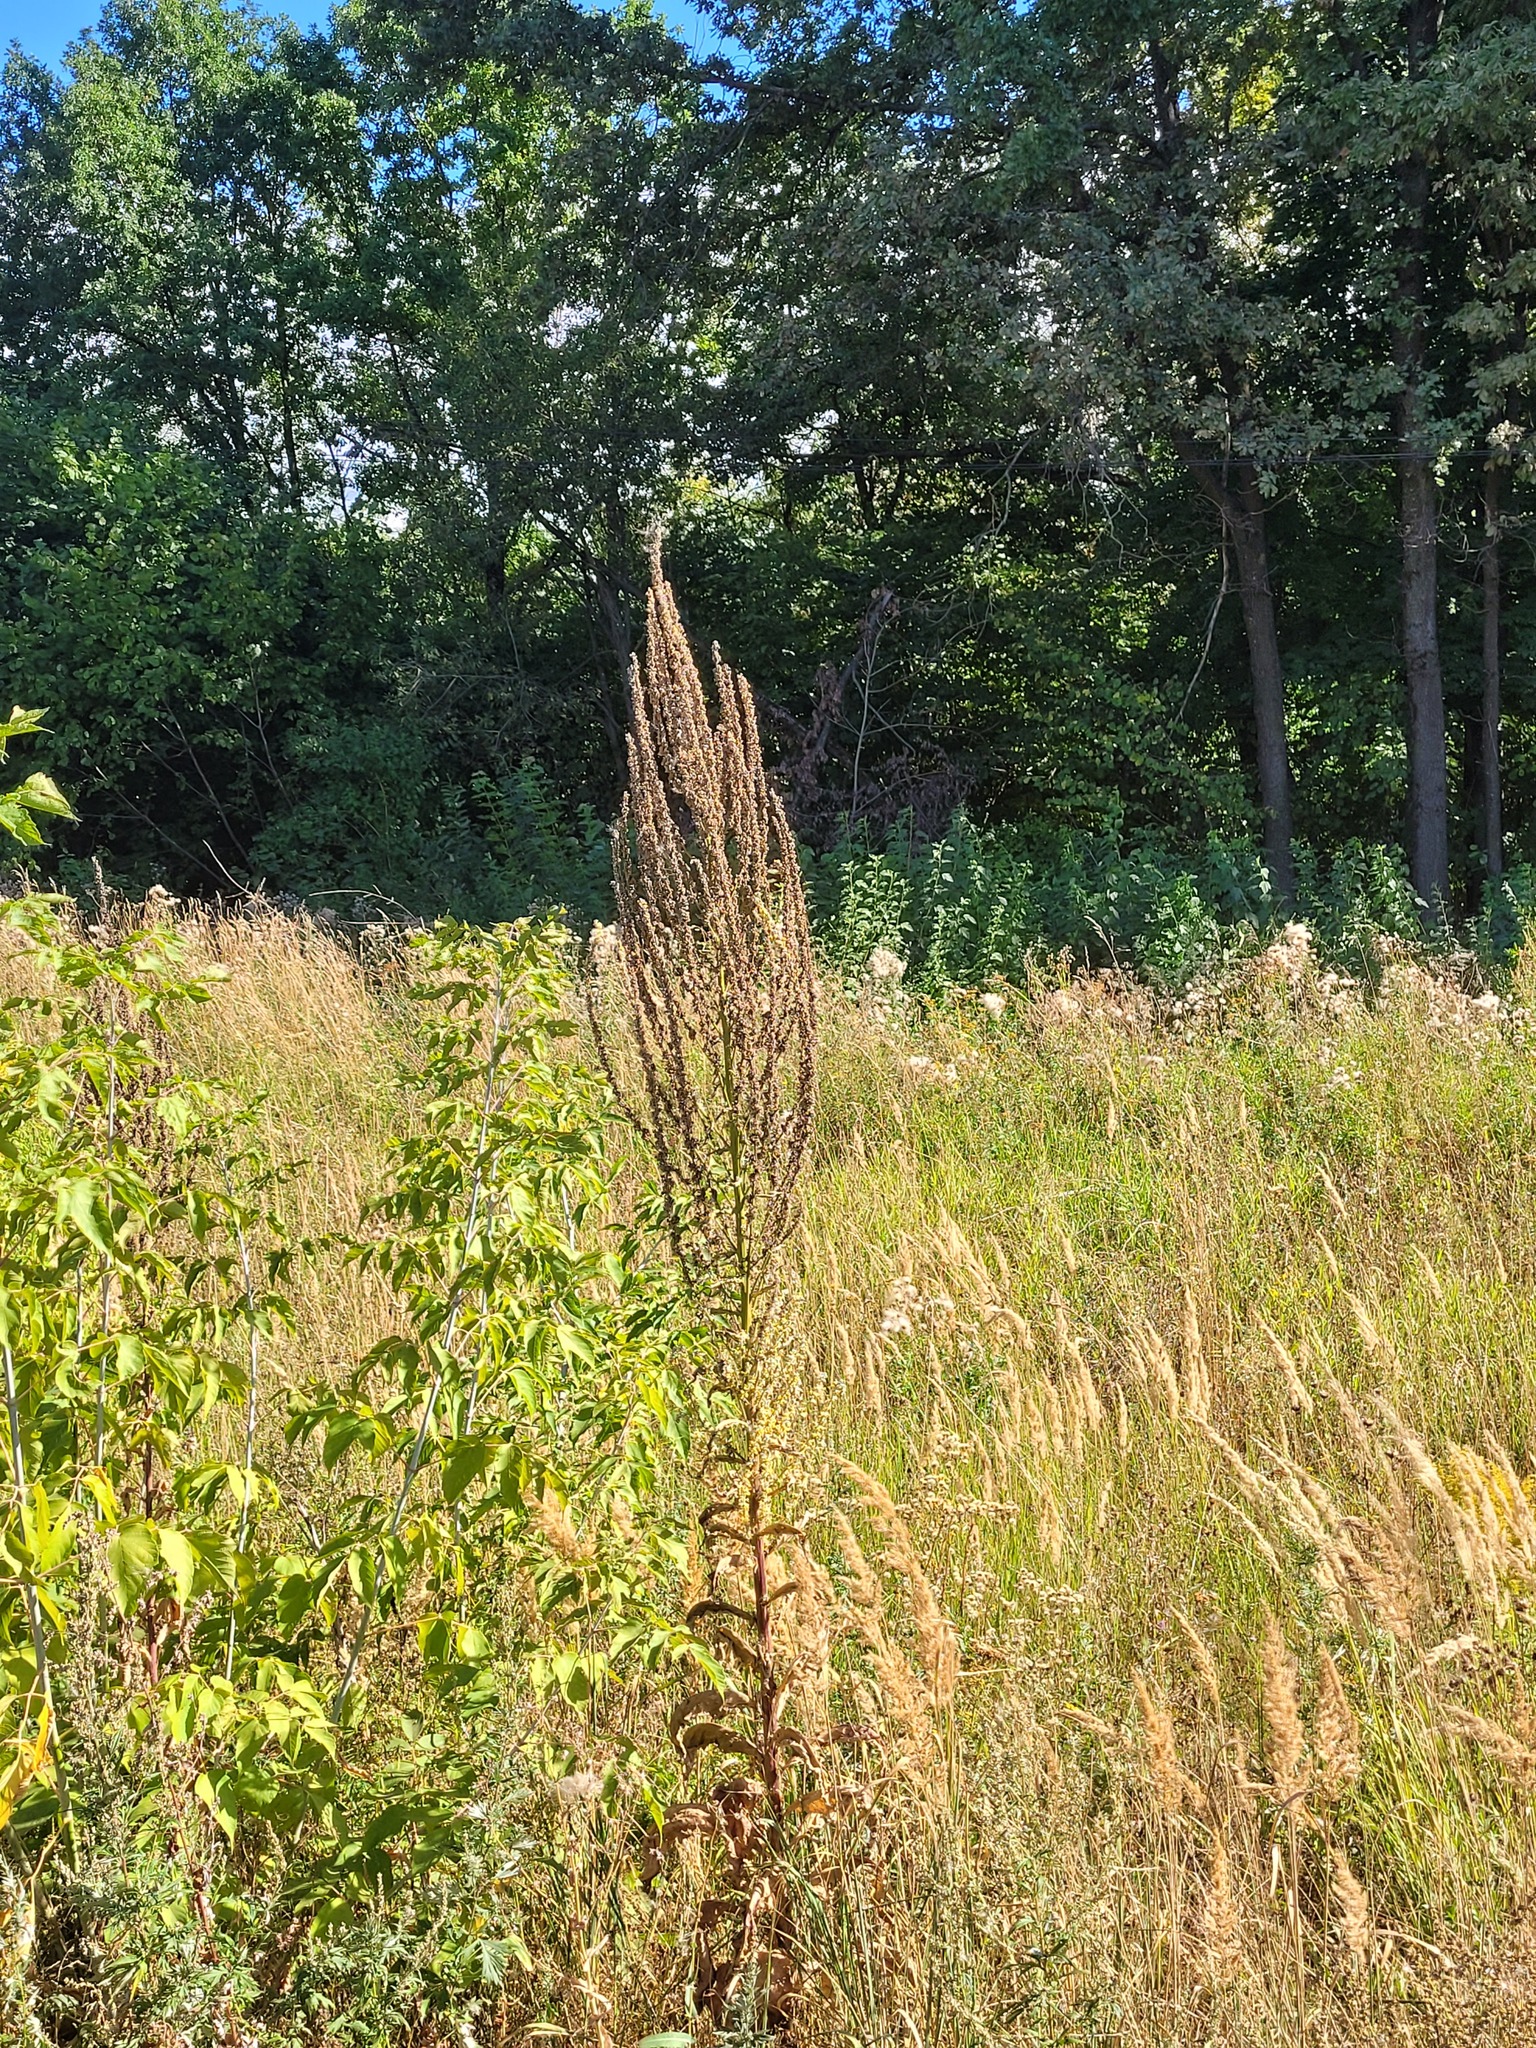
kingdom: Plantae
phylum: Tracheophyta
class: Magnoliopsida
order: Lamiales
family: Scrophulariaceae
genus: Verbascum
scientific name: Verbascum lychnitis
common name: White mullein
